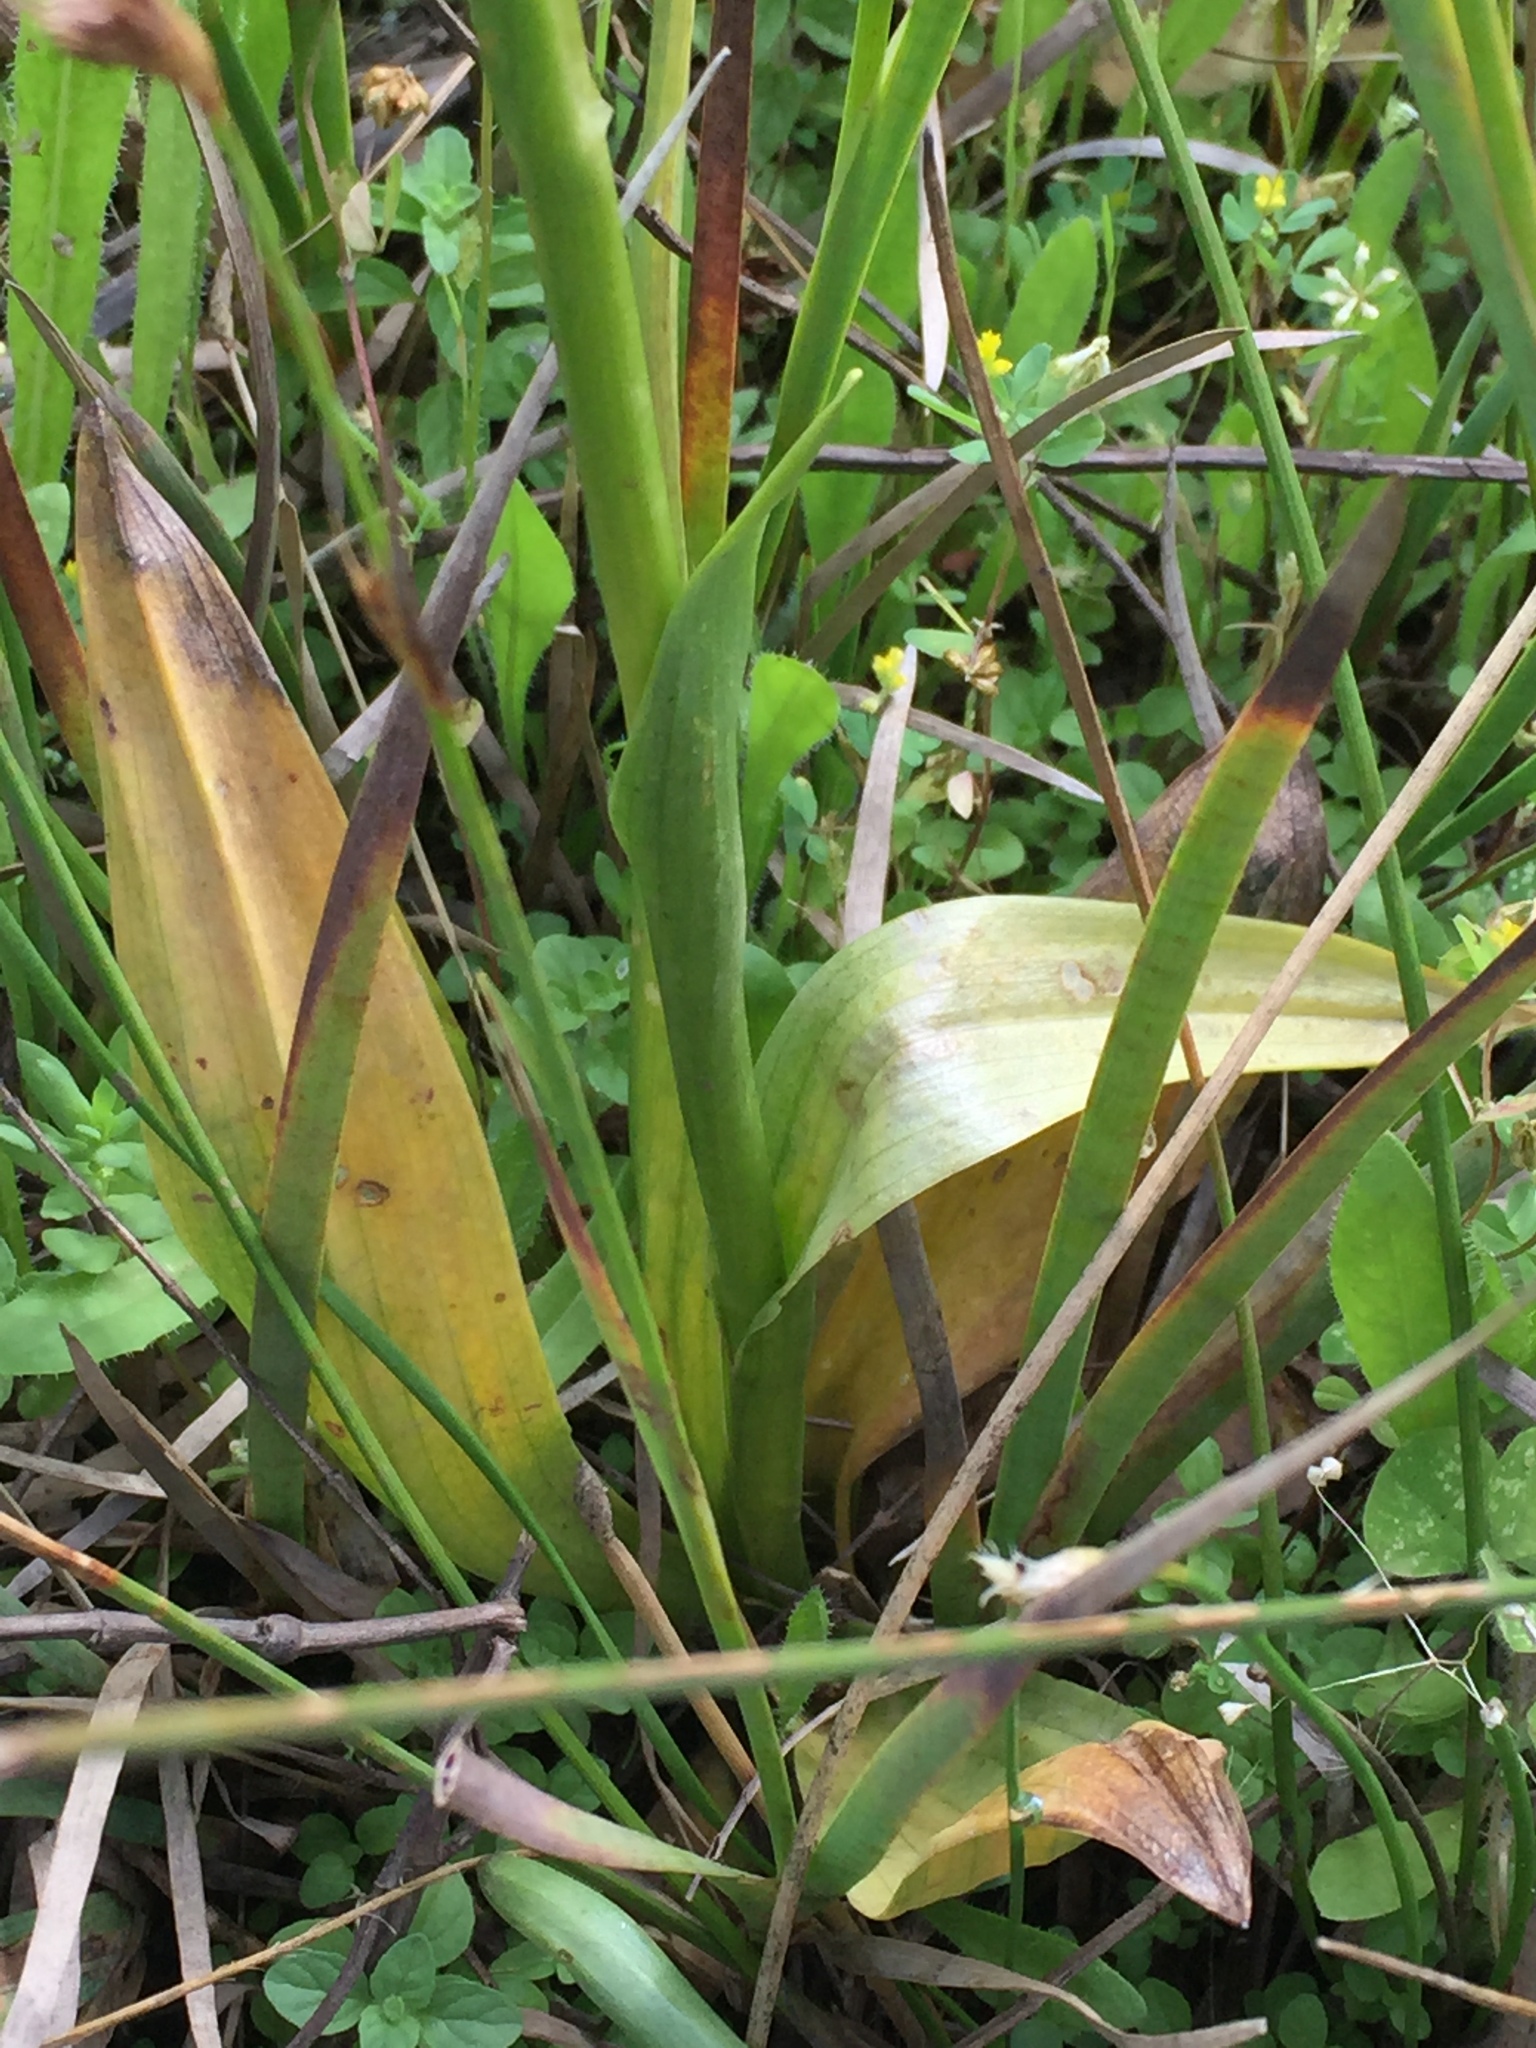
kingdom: Plantae
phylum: Tracheophyta
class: Liliopsida
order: Asparagales
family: Orchidaceae
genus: Spiranthes
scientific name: Spiranthes porrifolia
